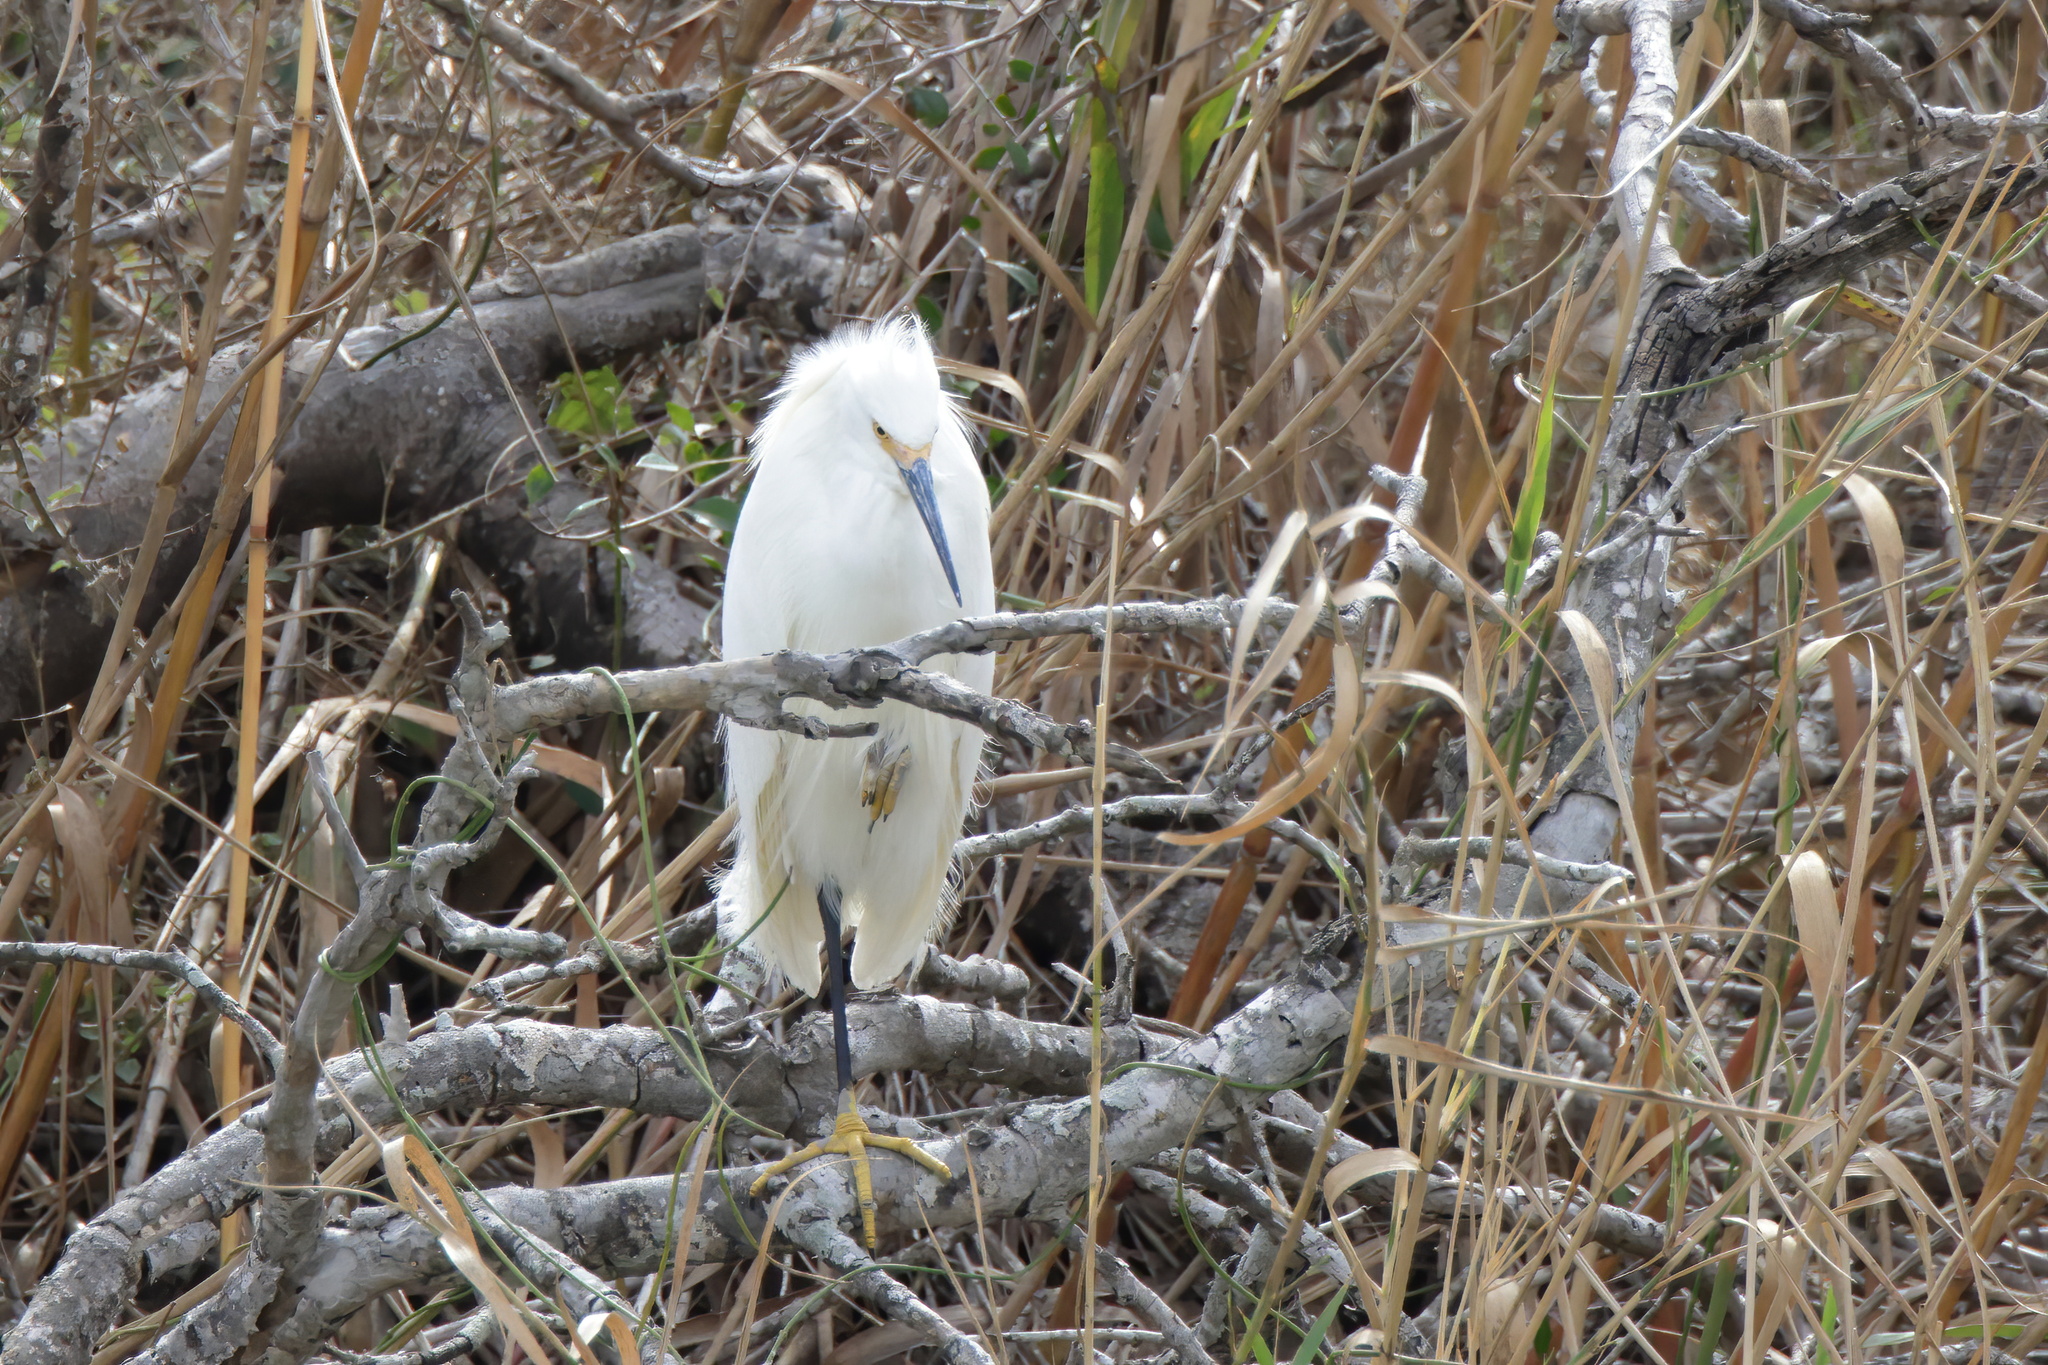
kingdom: Animalia
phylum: Chordata
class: Aves
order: Pelecaniformes
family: Ardeidae
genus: Egretta
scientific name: Egretta thula
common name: Snowy egret
